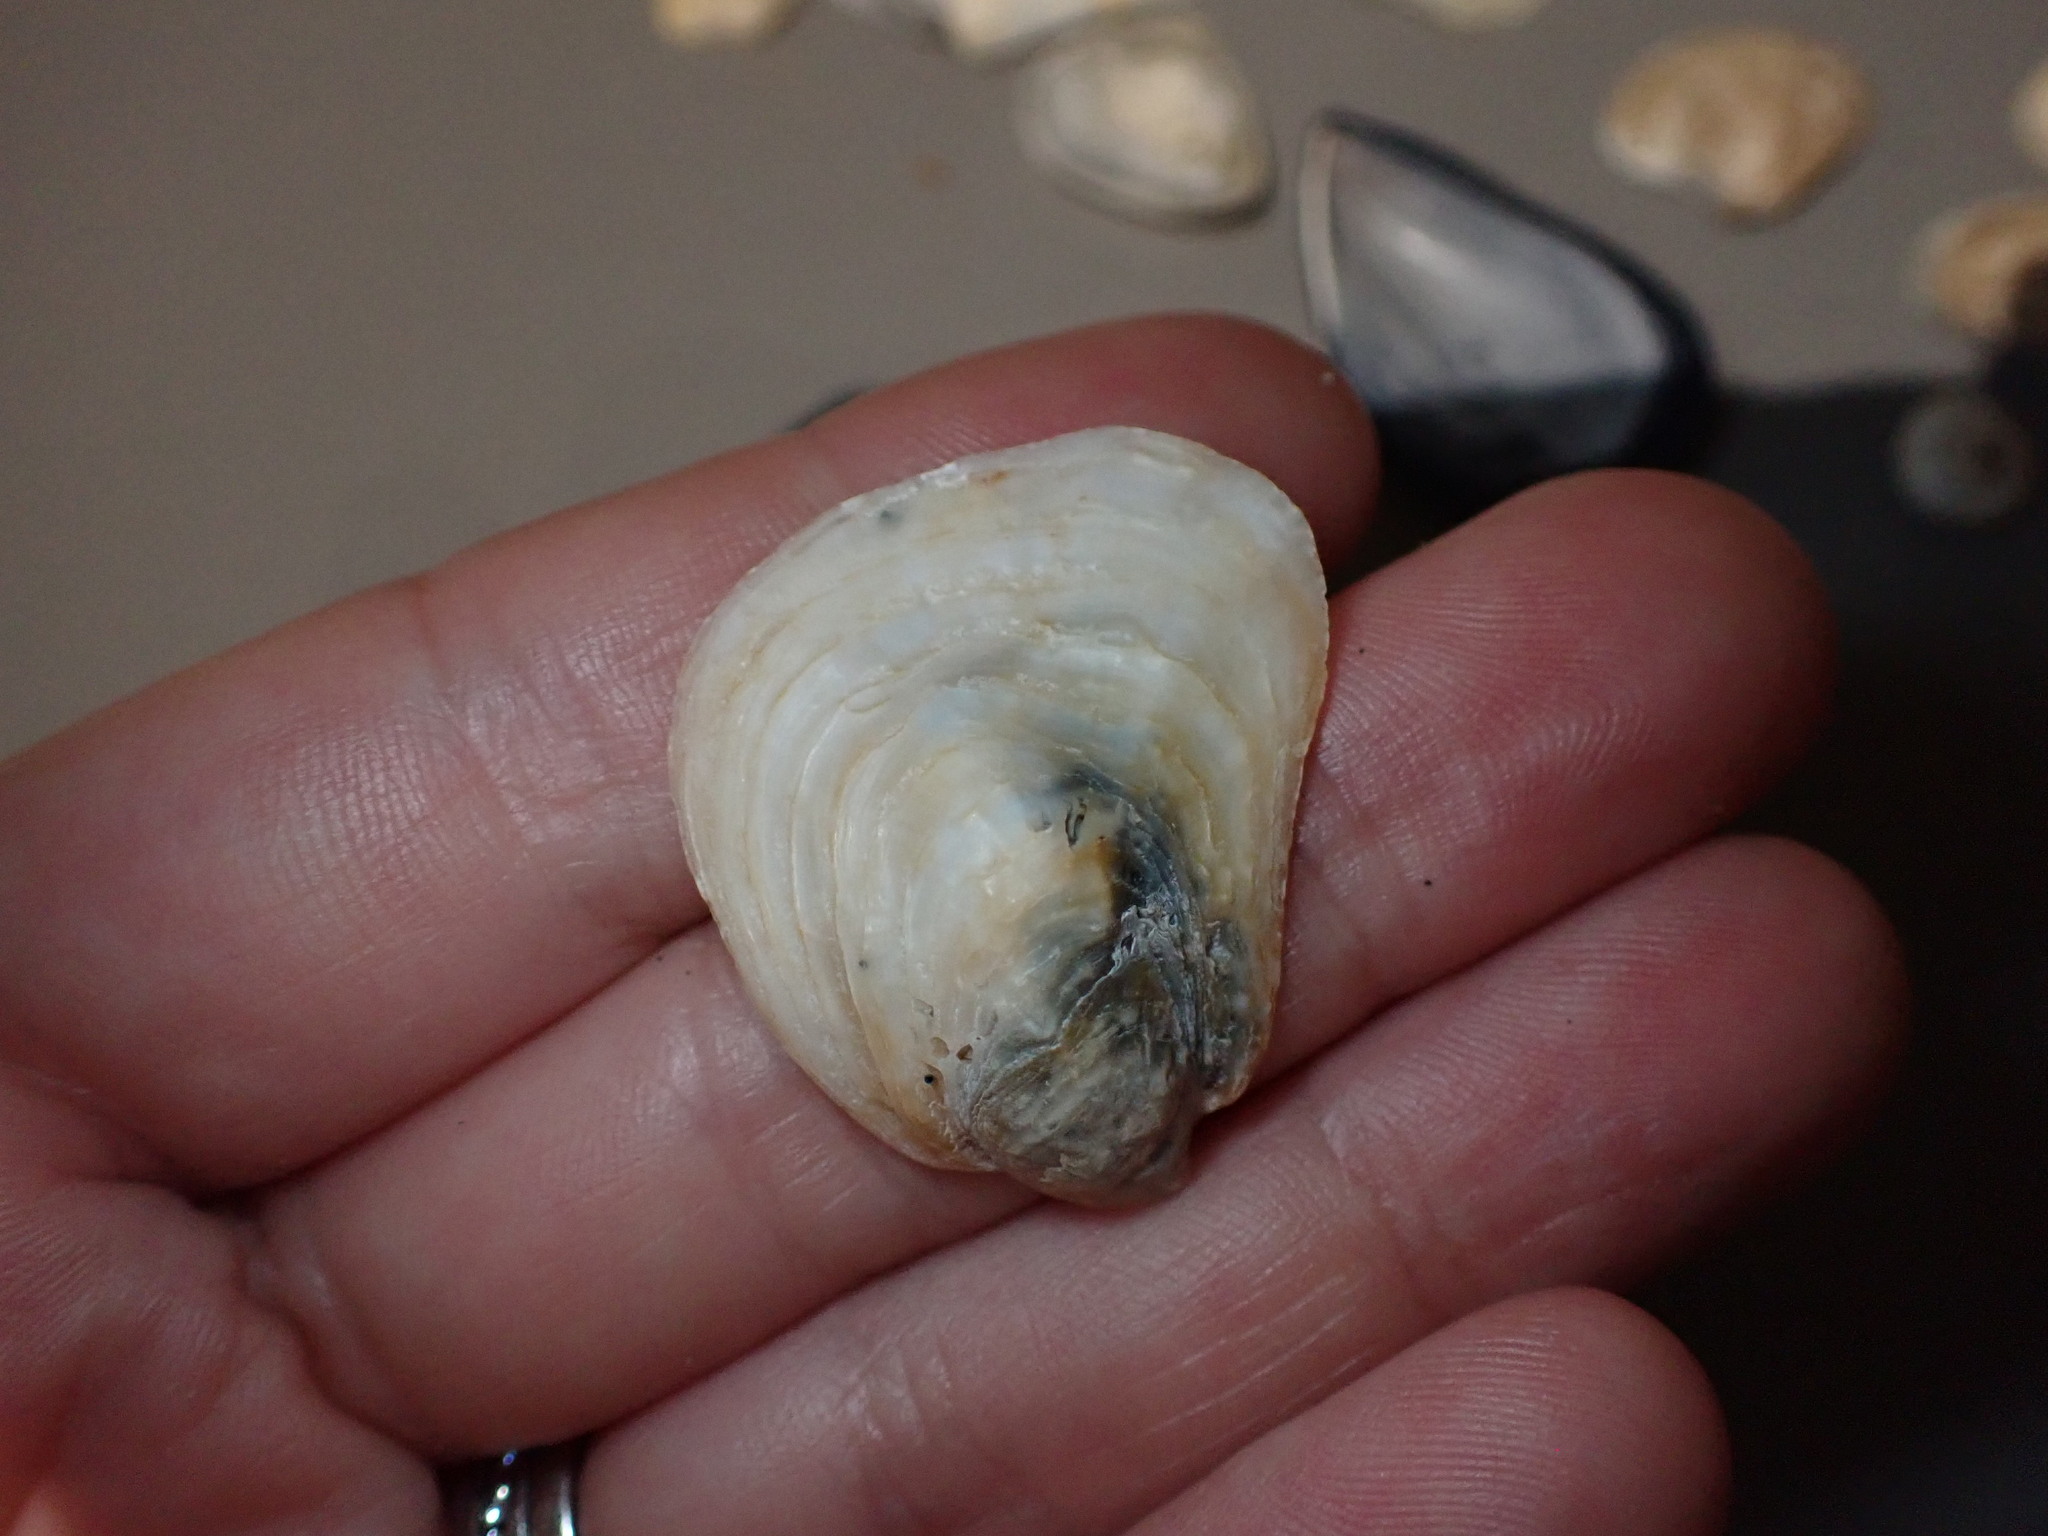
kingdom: Animalia
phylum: Mollusca
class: Bivalvia
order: Ostreida
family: Ostreidae
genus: Ostrea
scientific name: Ostrea edulis
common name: Flat oyster
